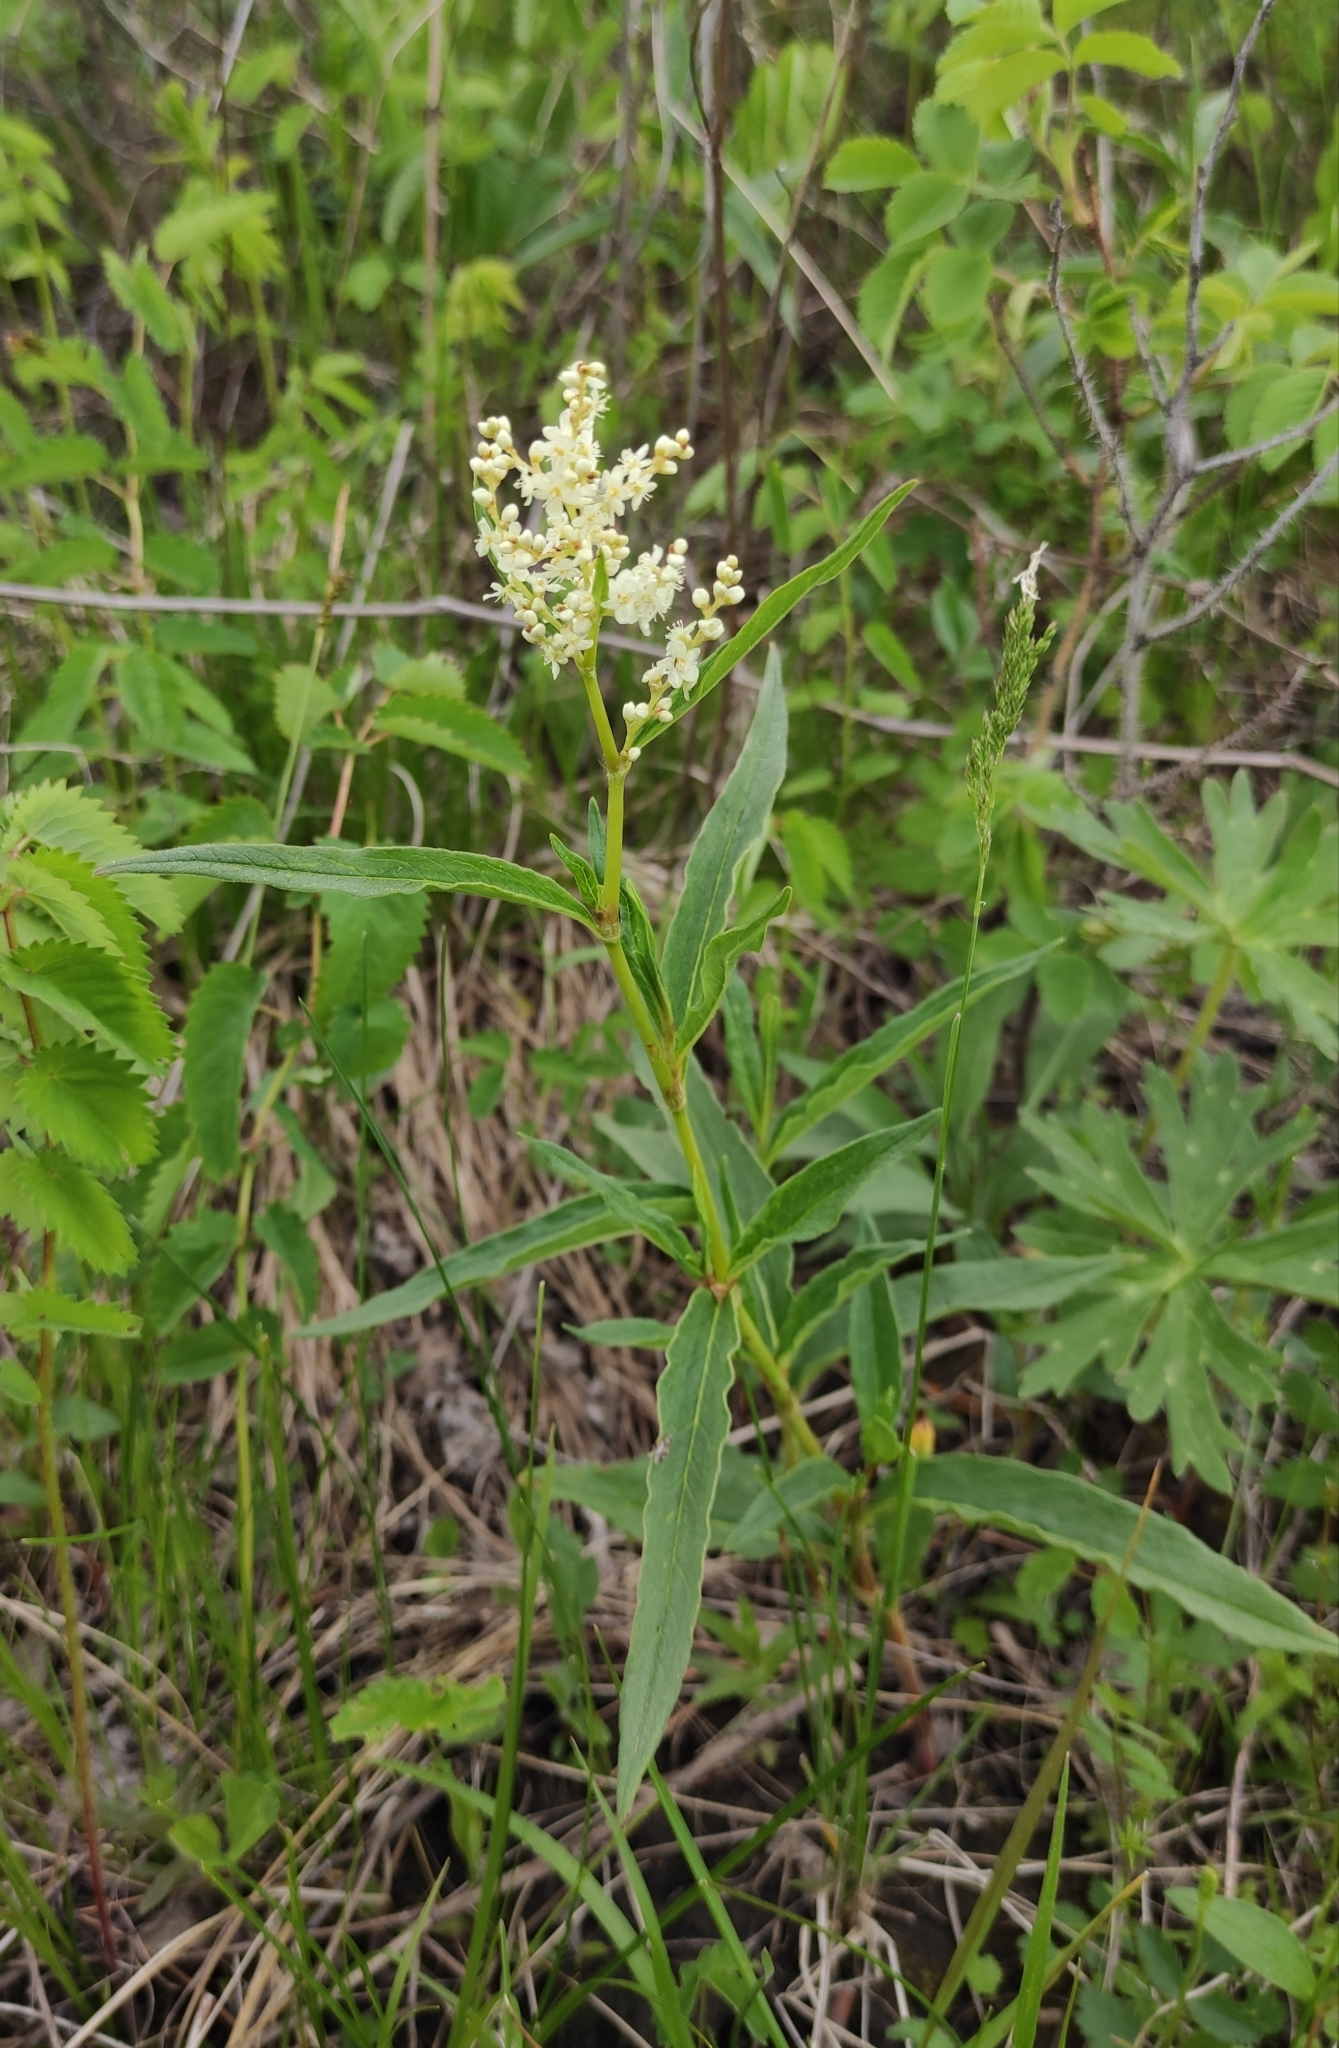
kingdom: Plantae
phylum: Tracheophyta
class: Magnoliopsida
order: Caryophyllales
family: Polygonaceae
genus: Koenigia
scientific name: Koenigia alpina
